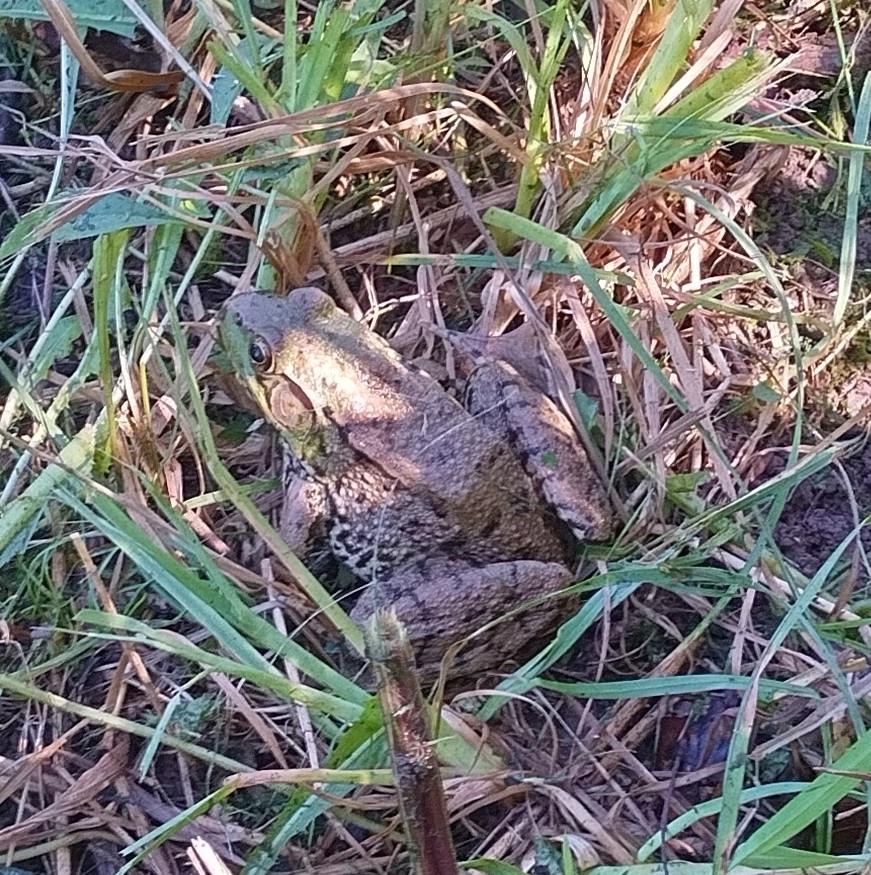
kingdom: Animalia
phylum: Chordata
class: Amphibia
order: Anura
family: Ranidae
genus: Lithobates
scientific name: Lithobates clamitans
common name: Green frog
